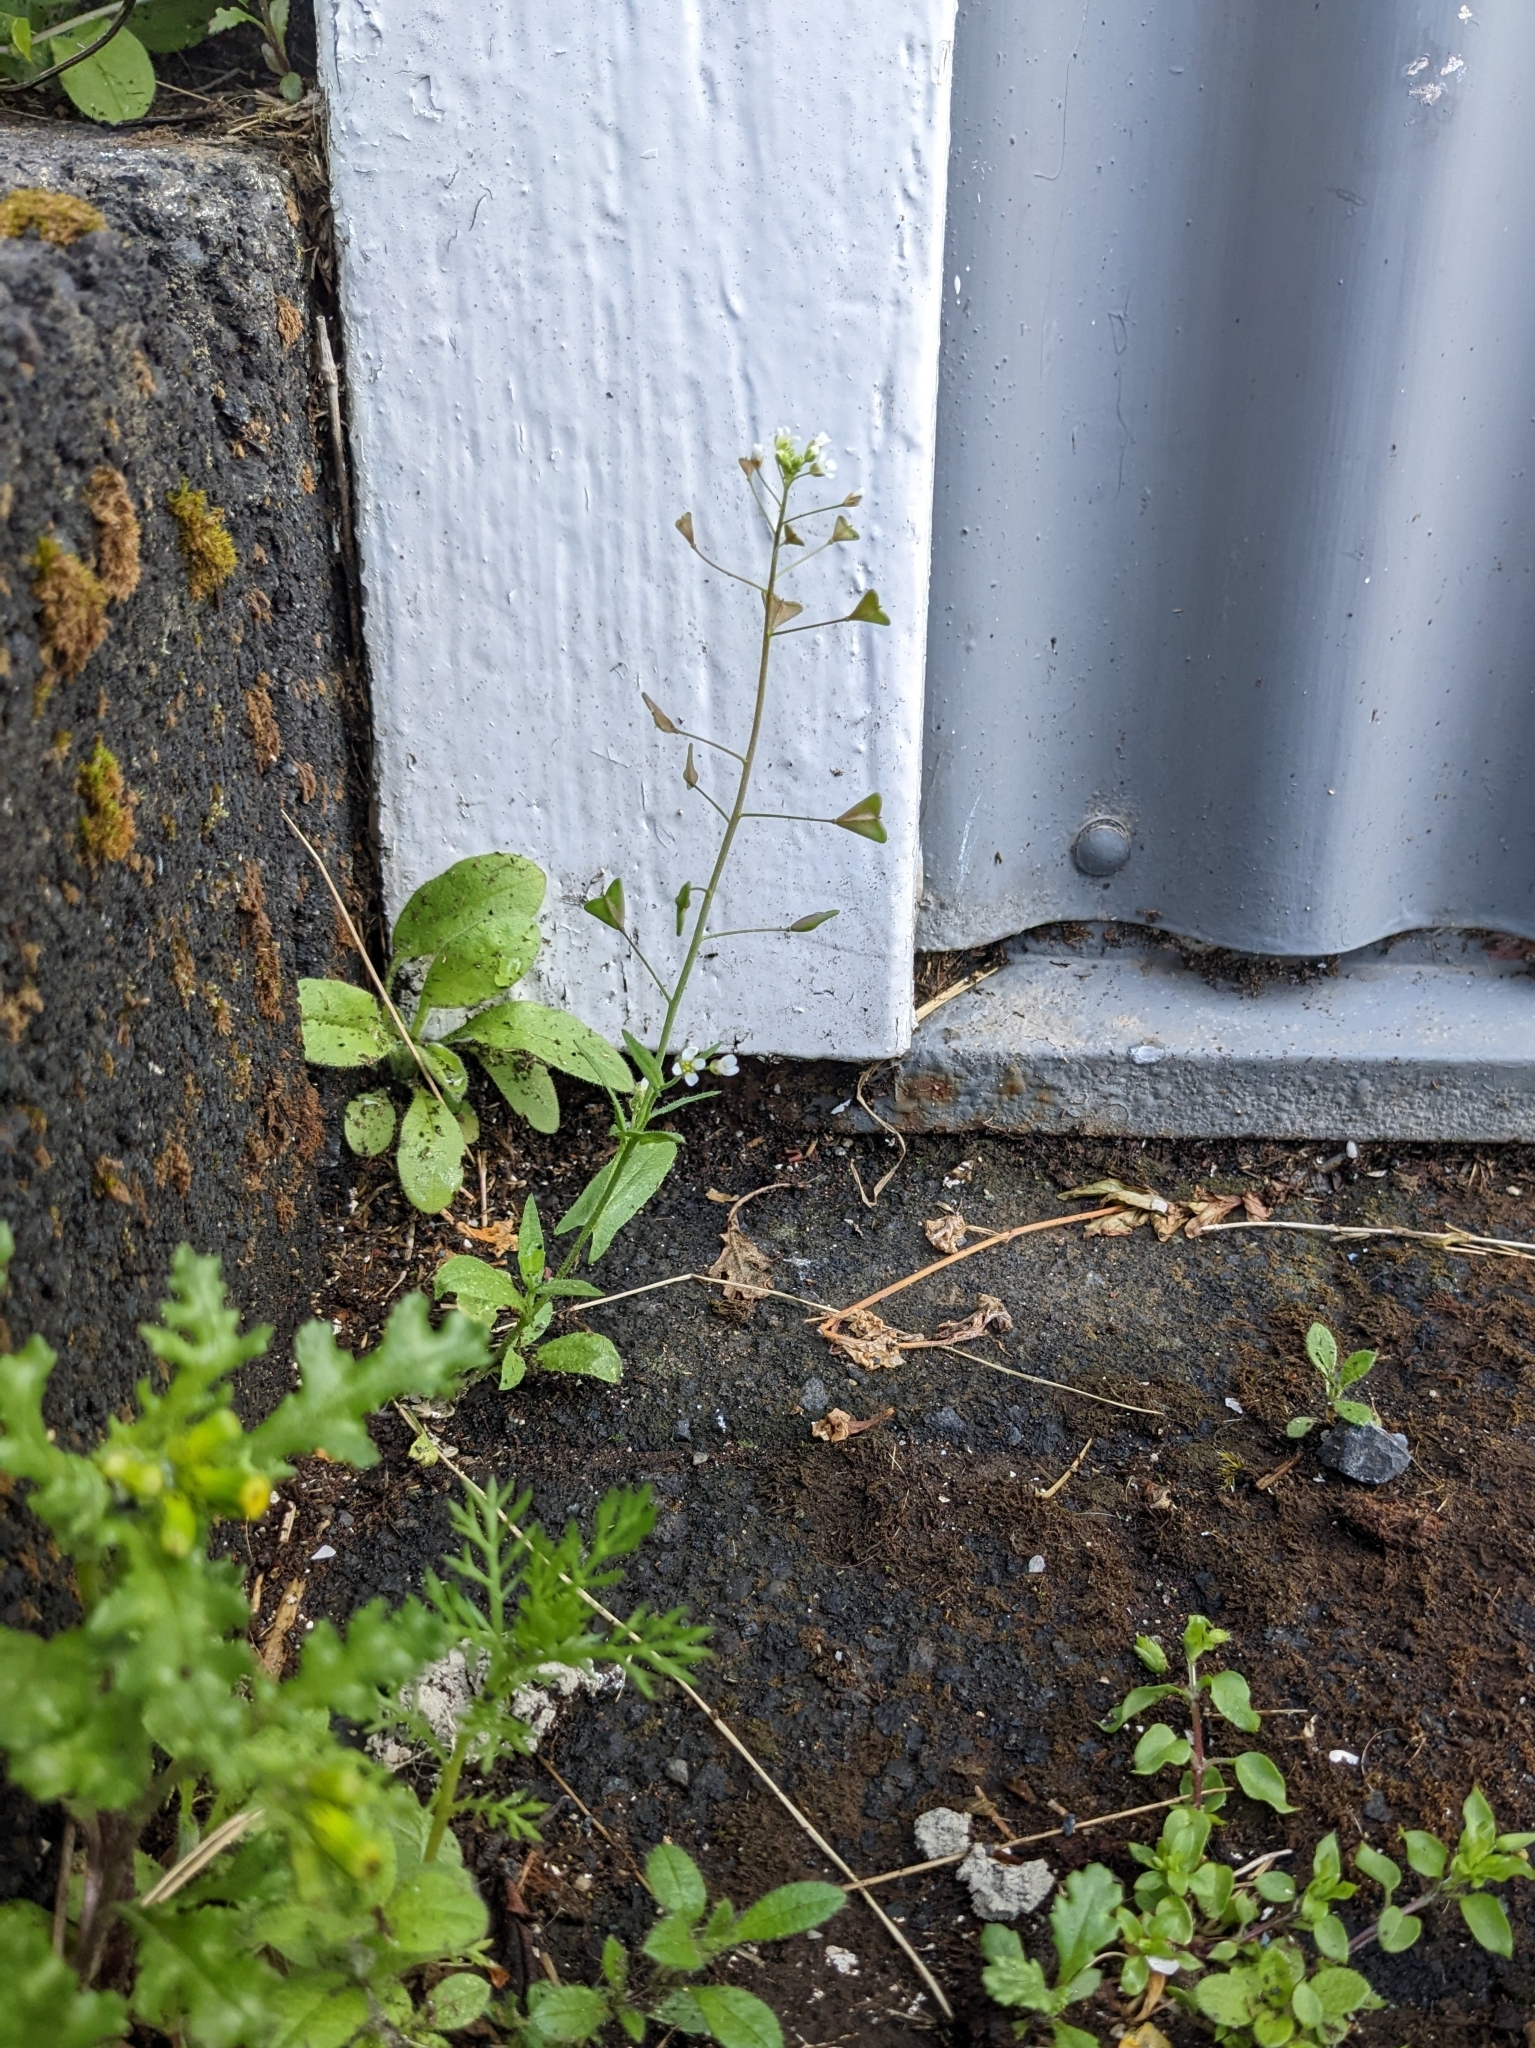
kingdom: Plantae
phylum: Tracheophyta
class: Magnoliopsida
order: Brassicales
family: Brassicaceae
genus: Capsella
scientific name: Capsella bursa-pastoris
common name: Shepherd's purse
